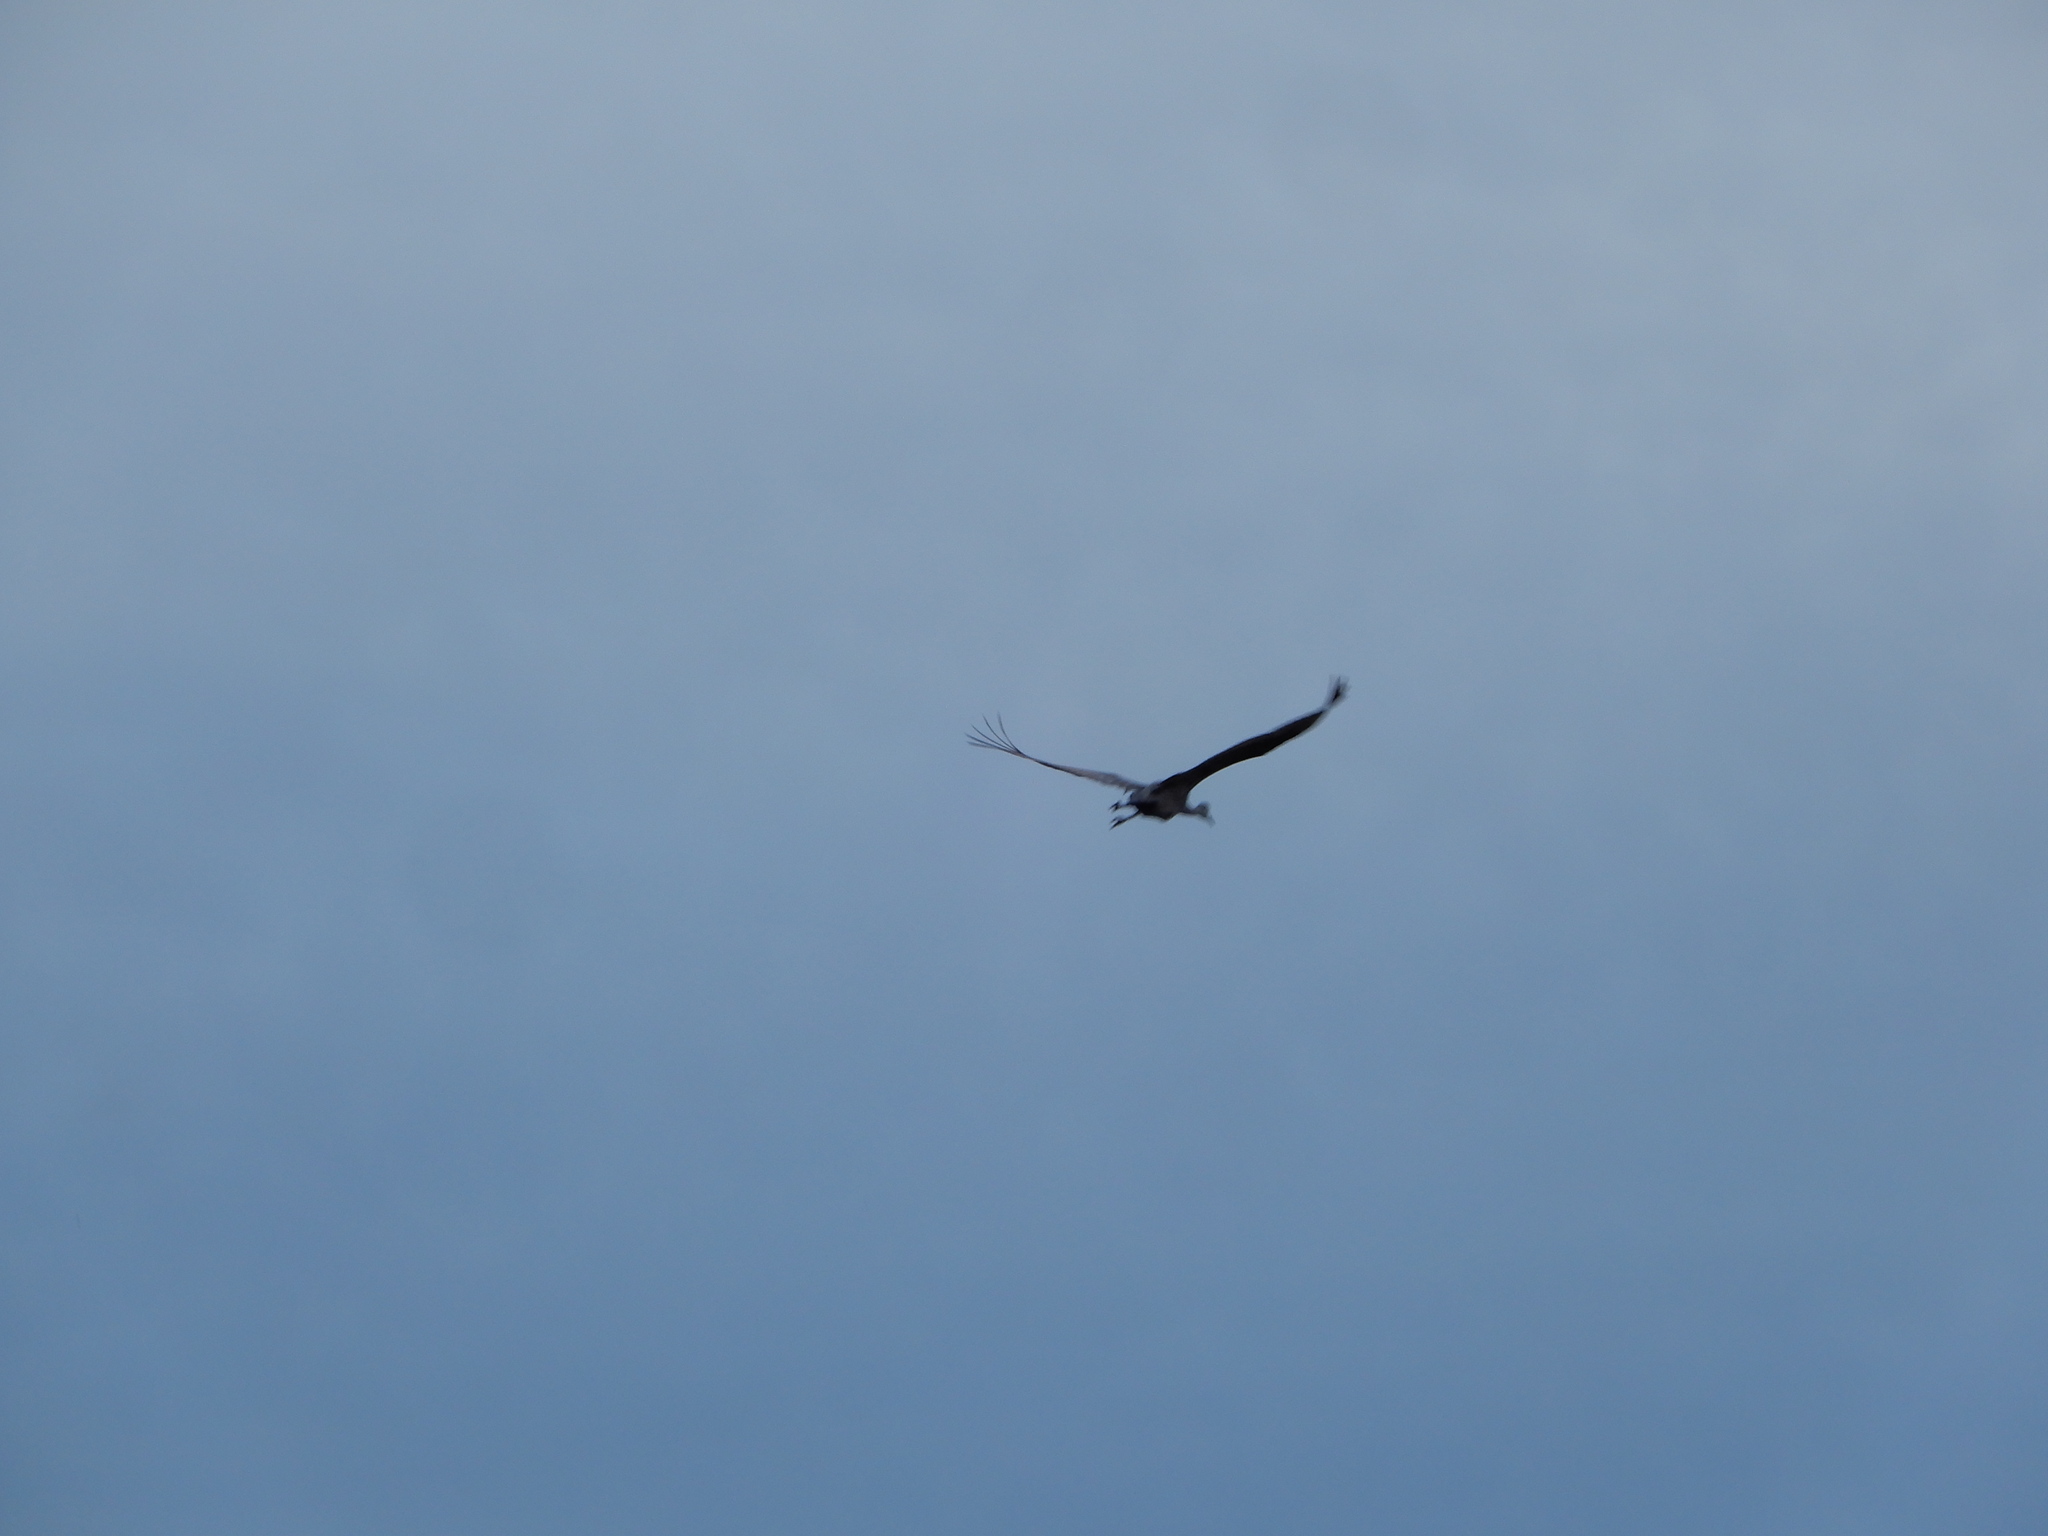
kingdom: Animalia
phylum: Chordata
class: Aves
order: Gruiformes
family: Gruidae
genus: Grus
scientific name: Grus canadensis
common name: Sandhill crane
